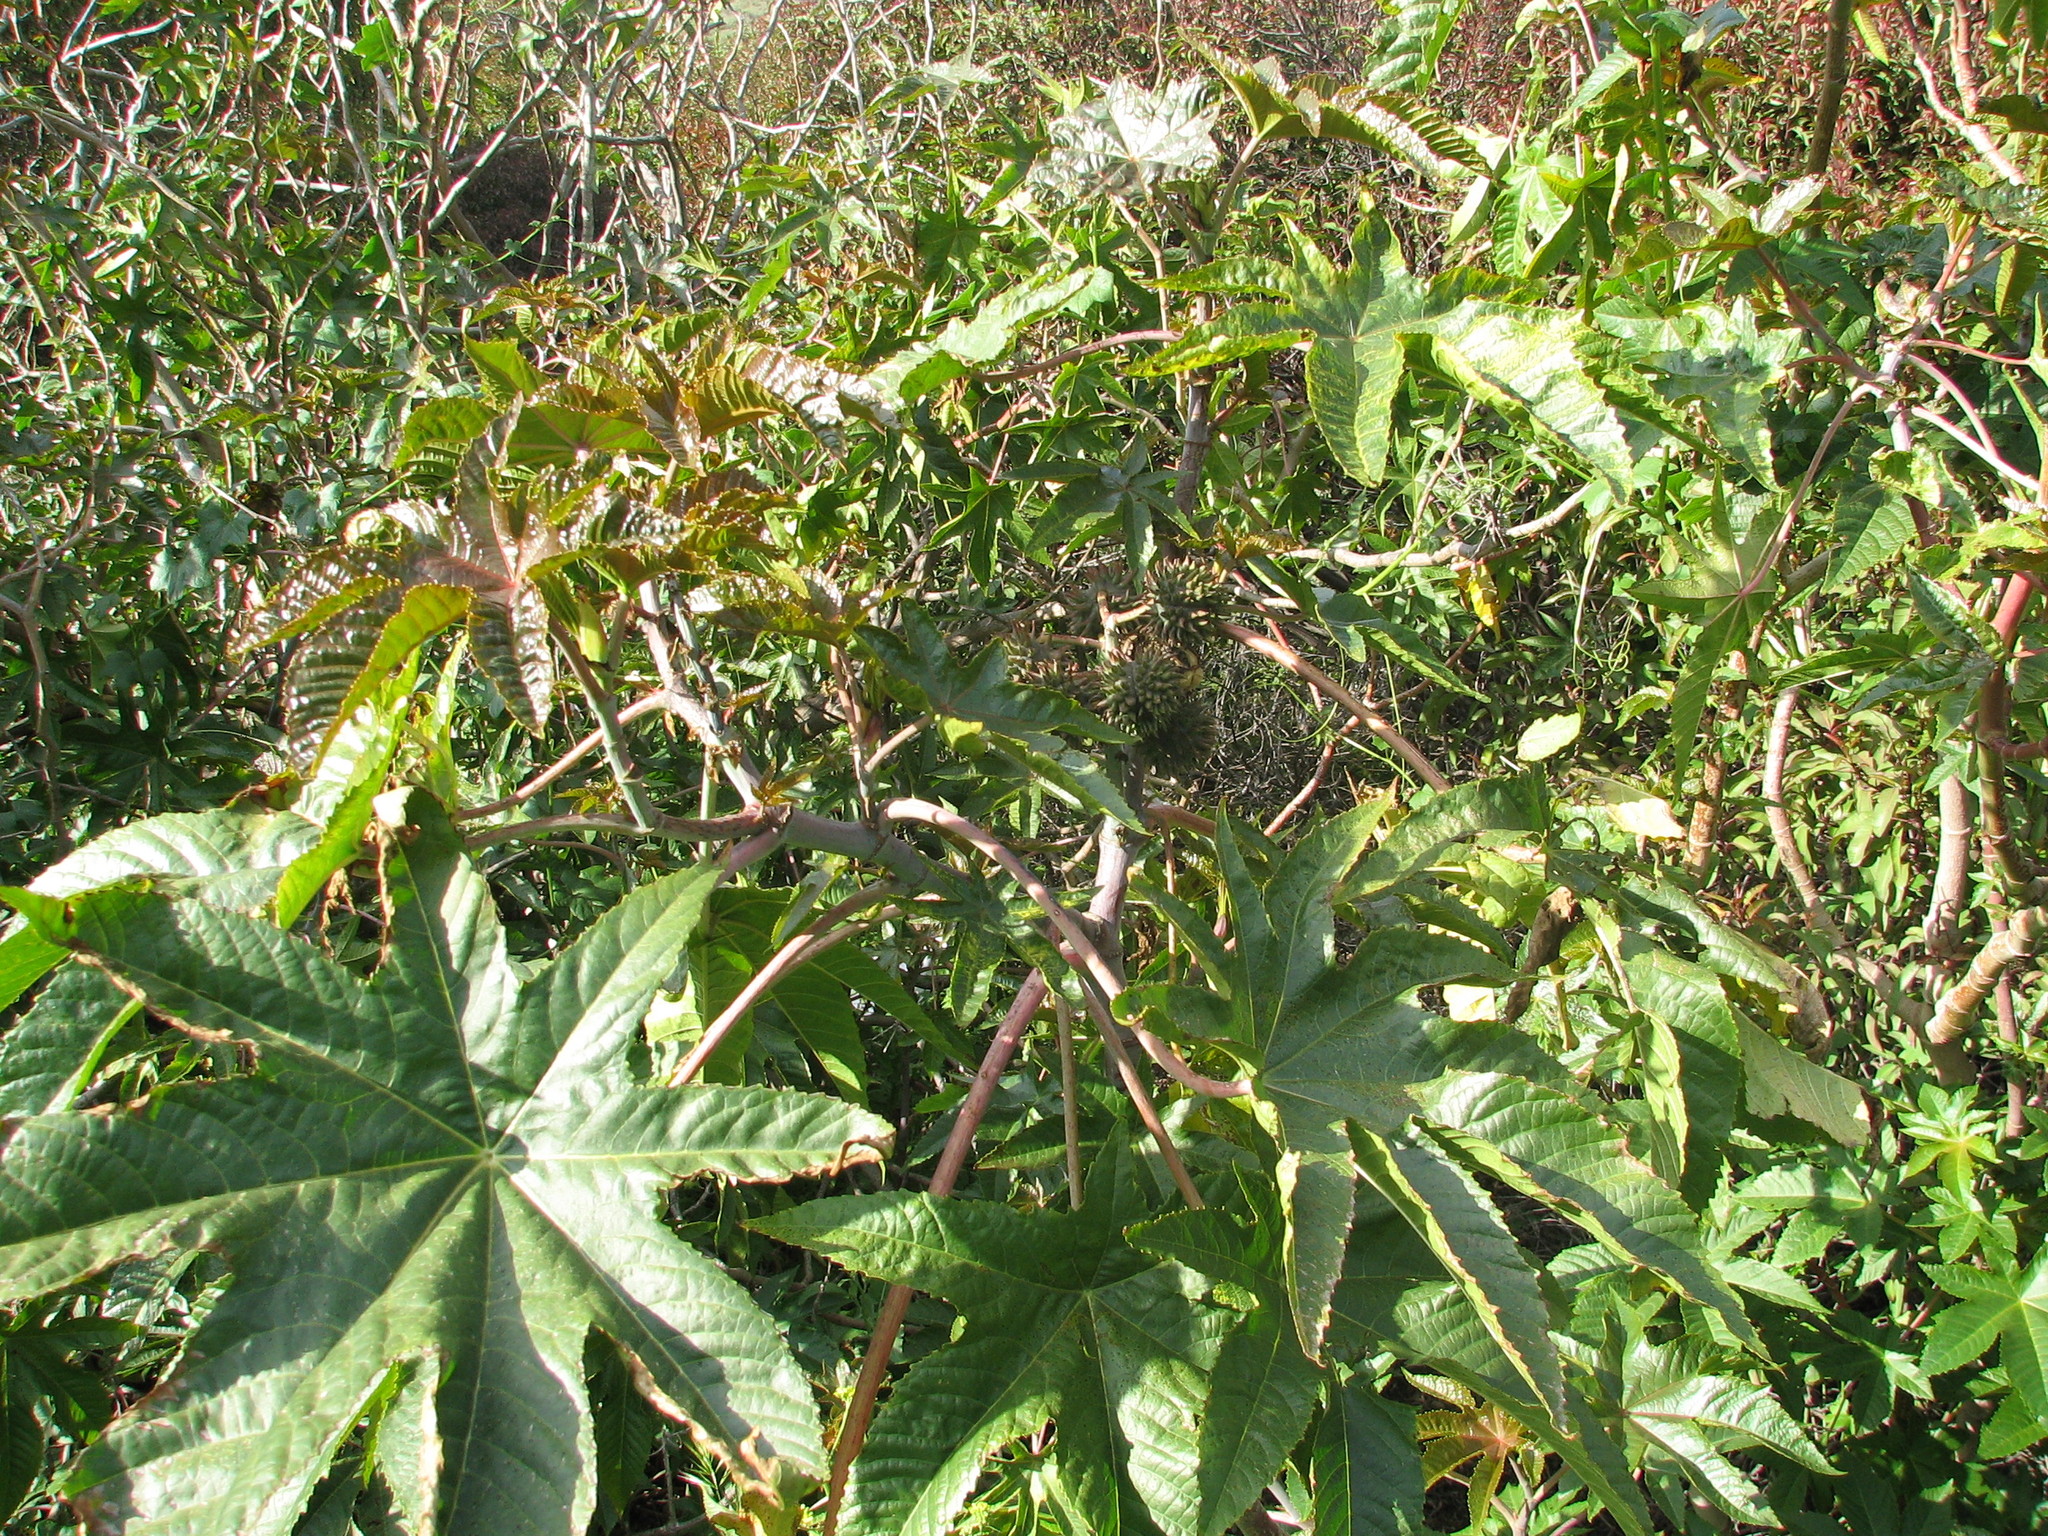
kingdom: Plantae
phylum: Tracheophyta
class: Magnoliopsida
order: Malpighiales
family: Euphorbiaceae
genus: Ricinus
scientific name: Ricinus communis
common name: Castor-oil-plant
